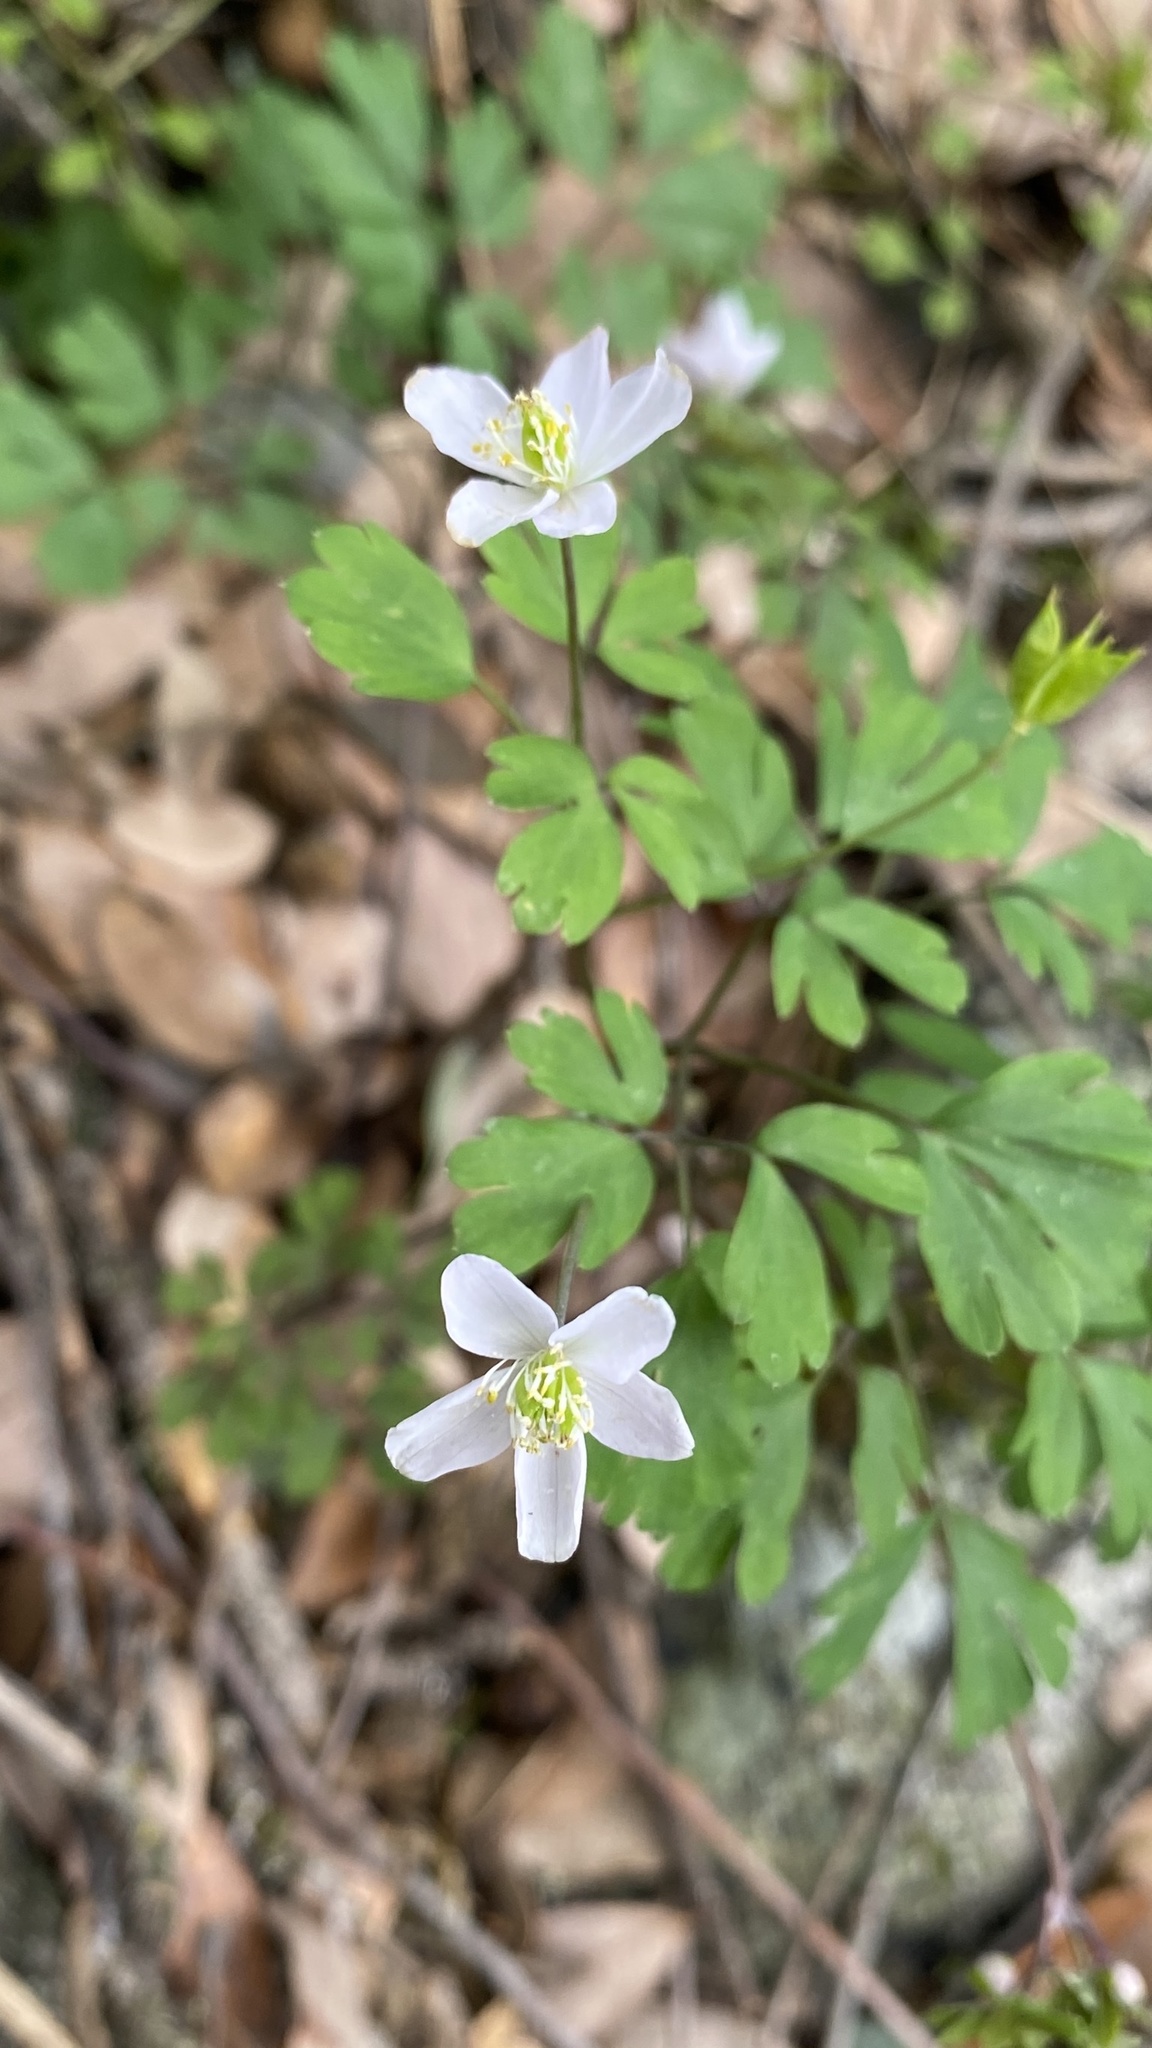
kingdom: Plantae
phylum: Tracheophyta
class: Magnoliopsida
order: Ranunculales
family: Ranunculaceae
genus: Enemion
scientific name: Enemion occidentale
